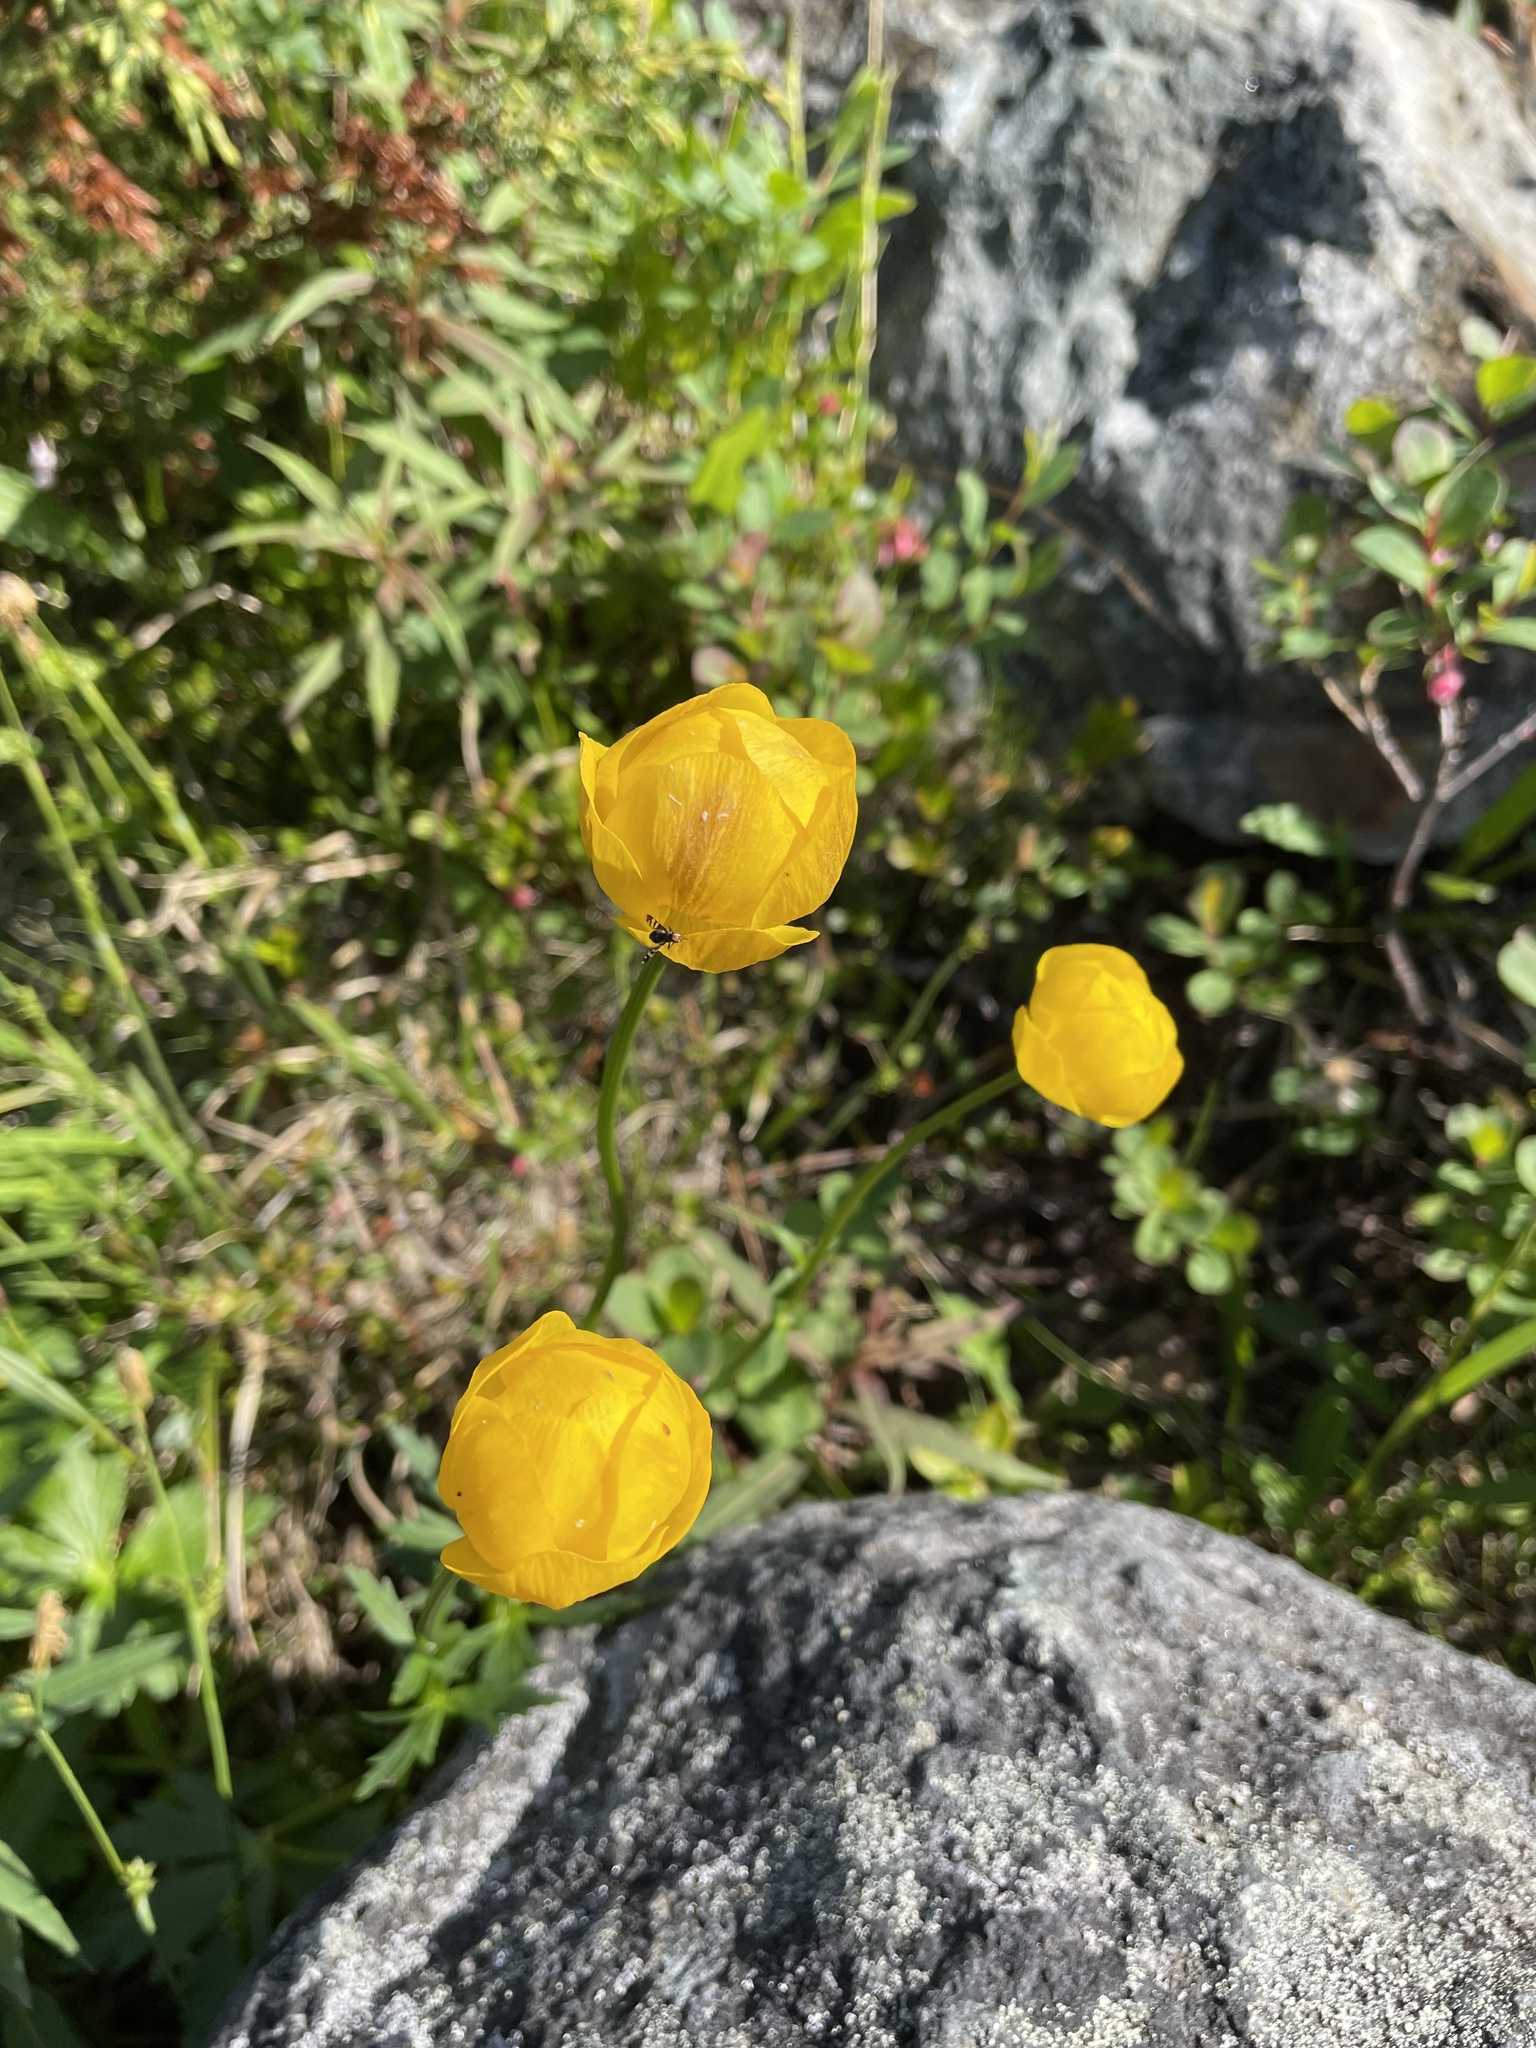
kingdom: Plantae
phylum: Tracheophyta
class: Magnoliopsida
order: Ranunculales
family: Ranunculaceae
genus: Trollius
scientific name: Trollius europaeus
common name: European globeflower
